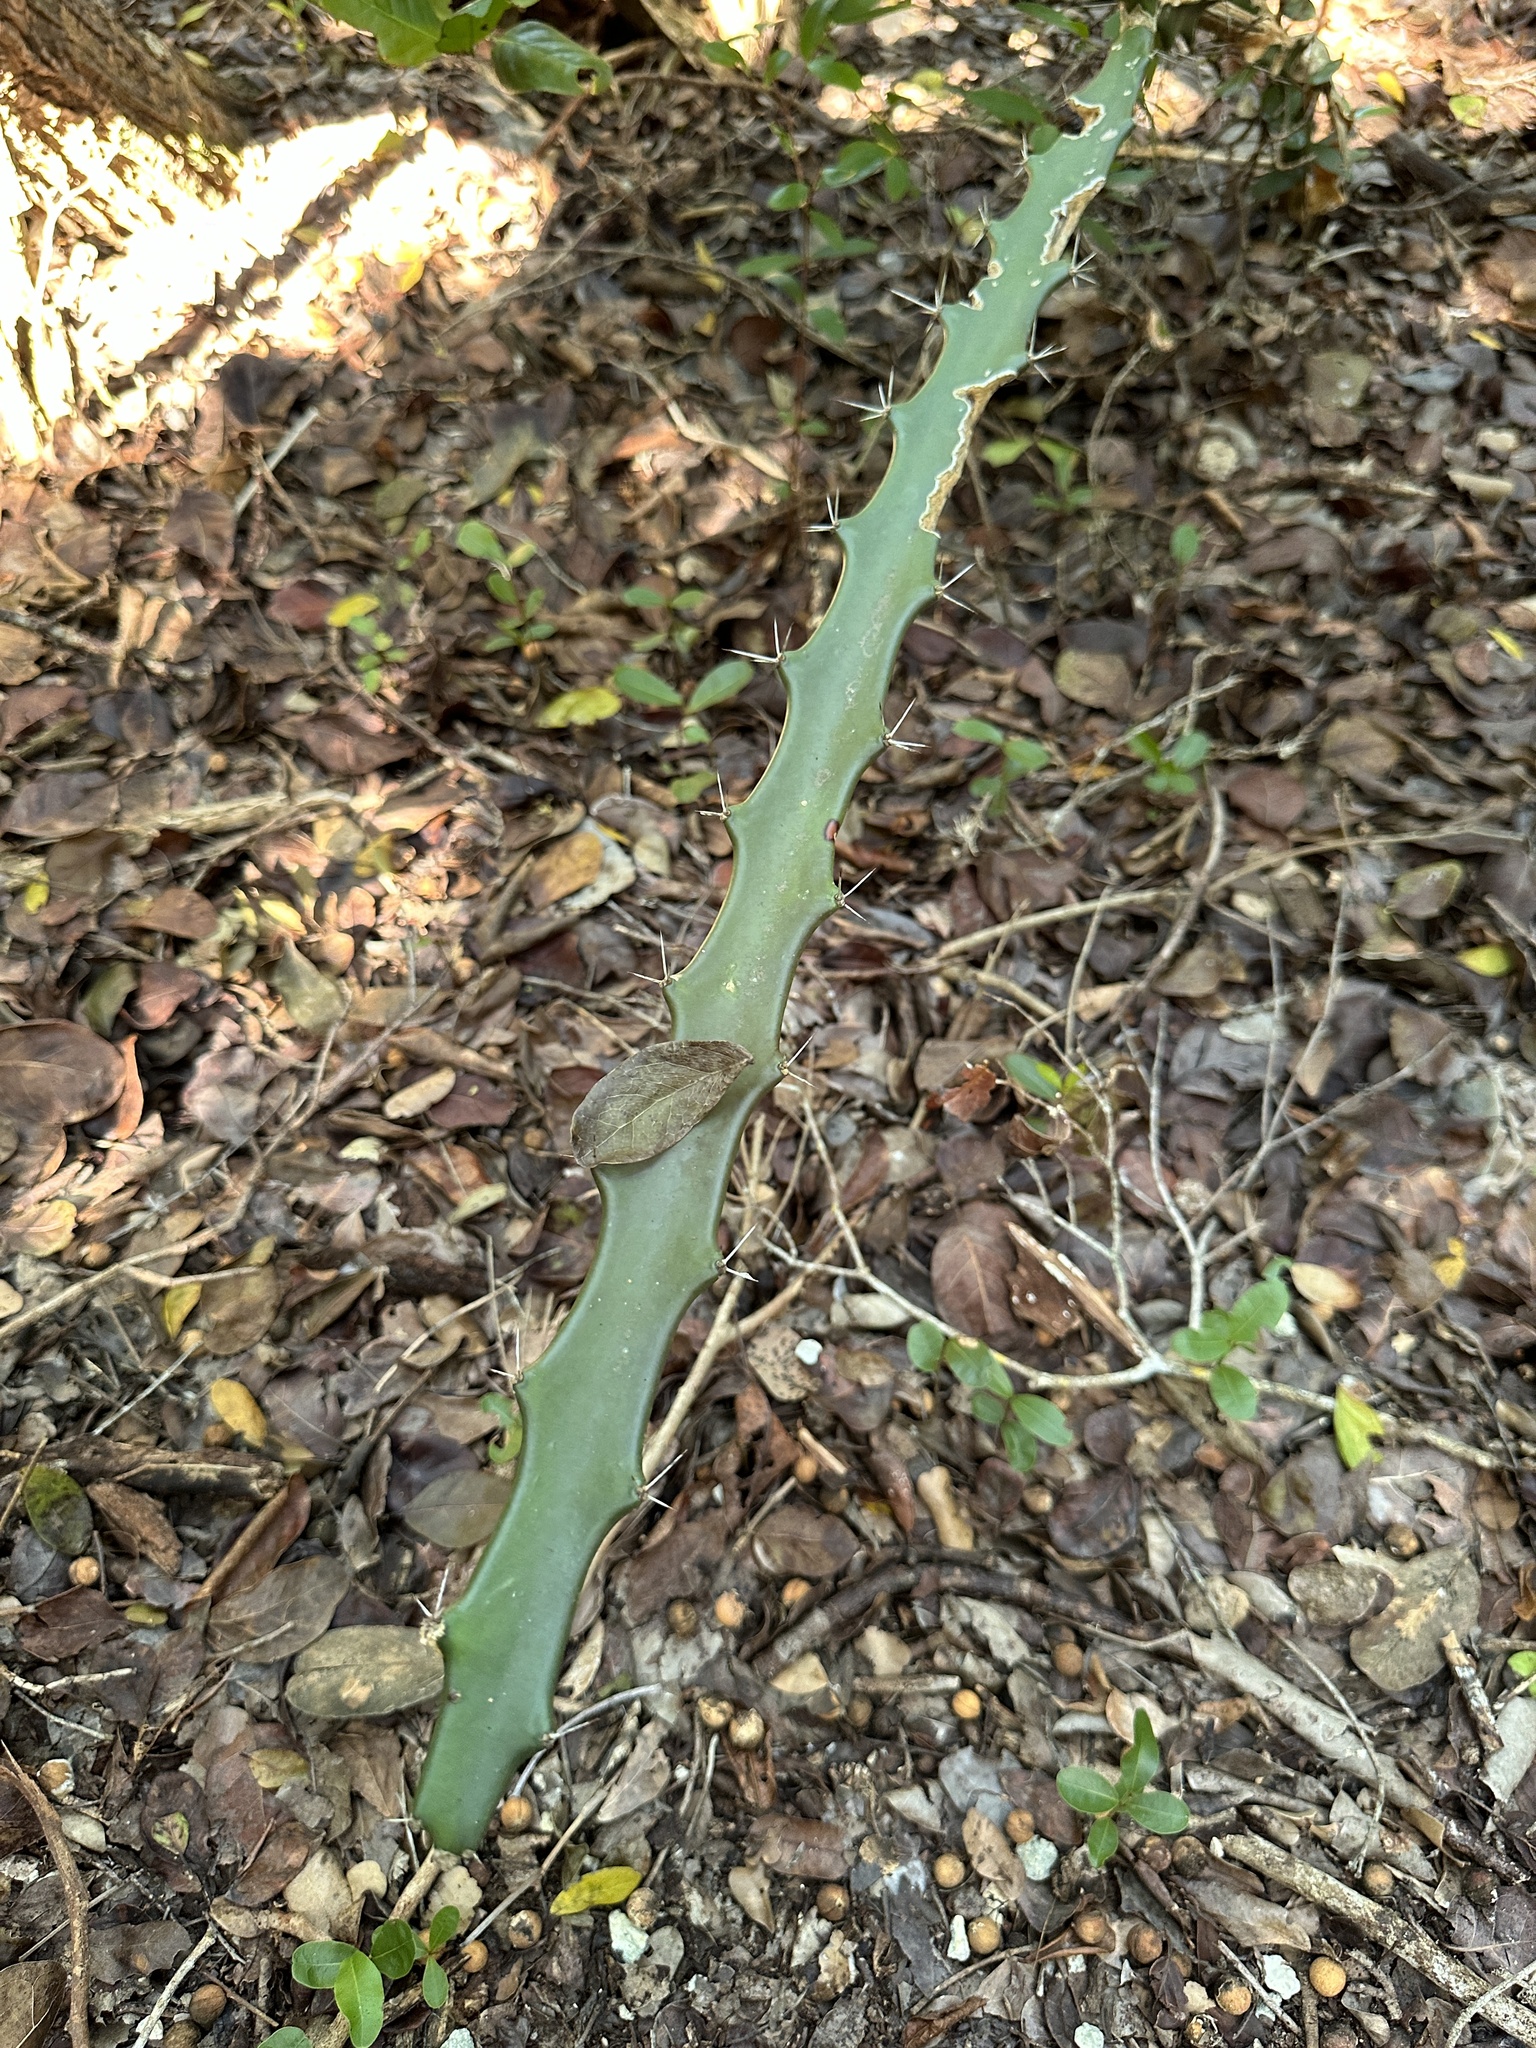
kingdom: Plantae
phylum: Tracheophyta
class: Magnoliopsida
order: Caryophyllales
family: Cactaceae
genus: Acanthocereus
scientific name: Acanthocereus tetragonus
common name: Triangle cactus
